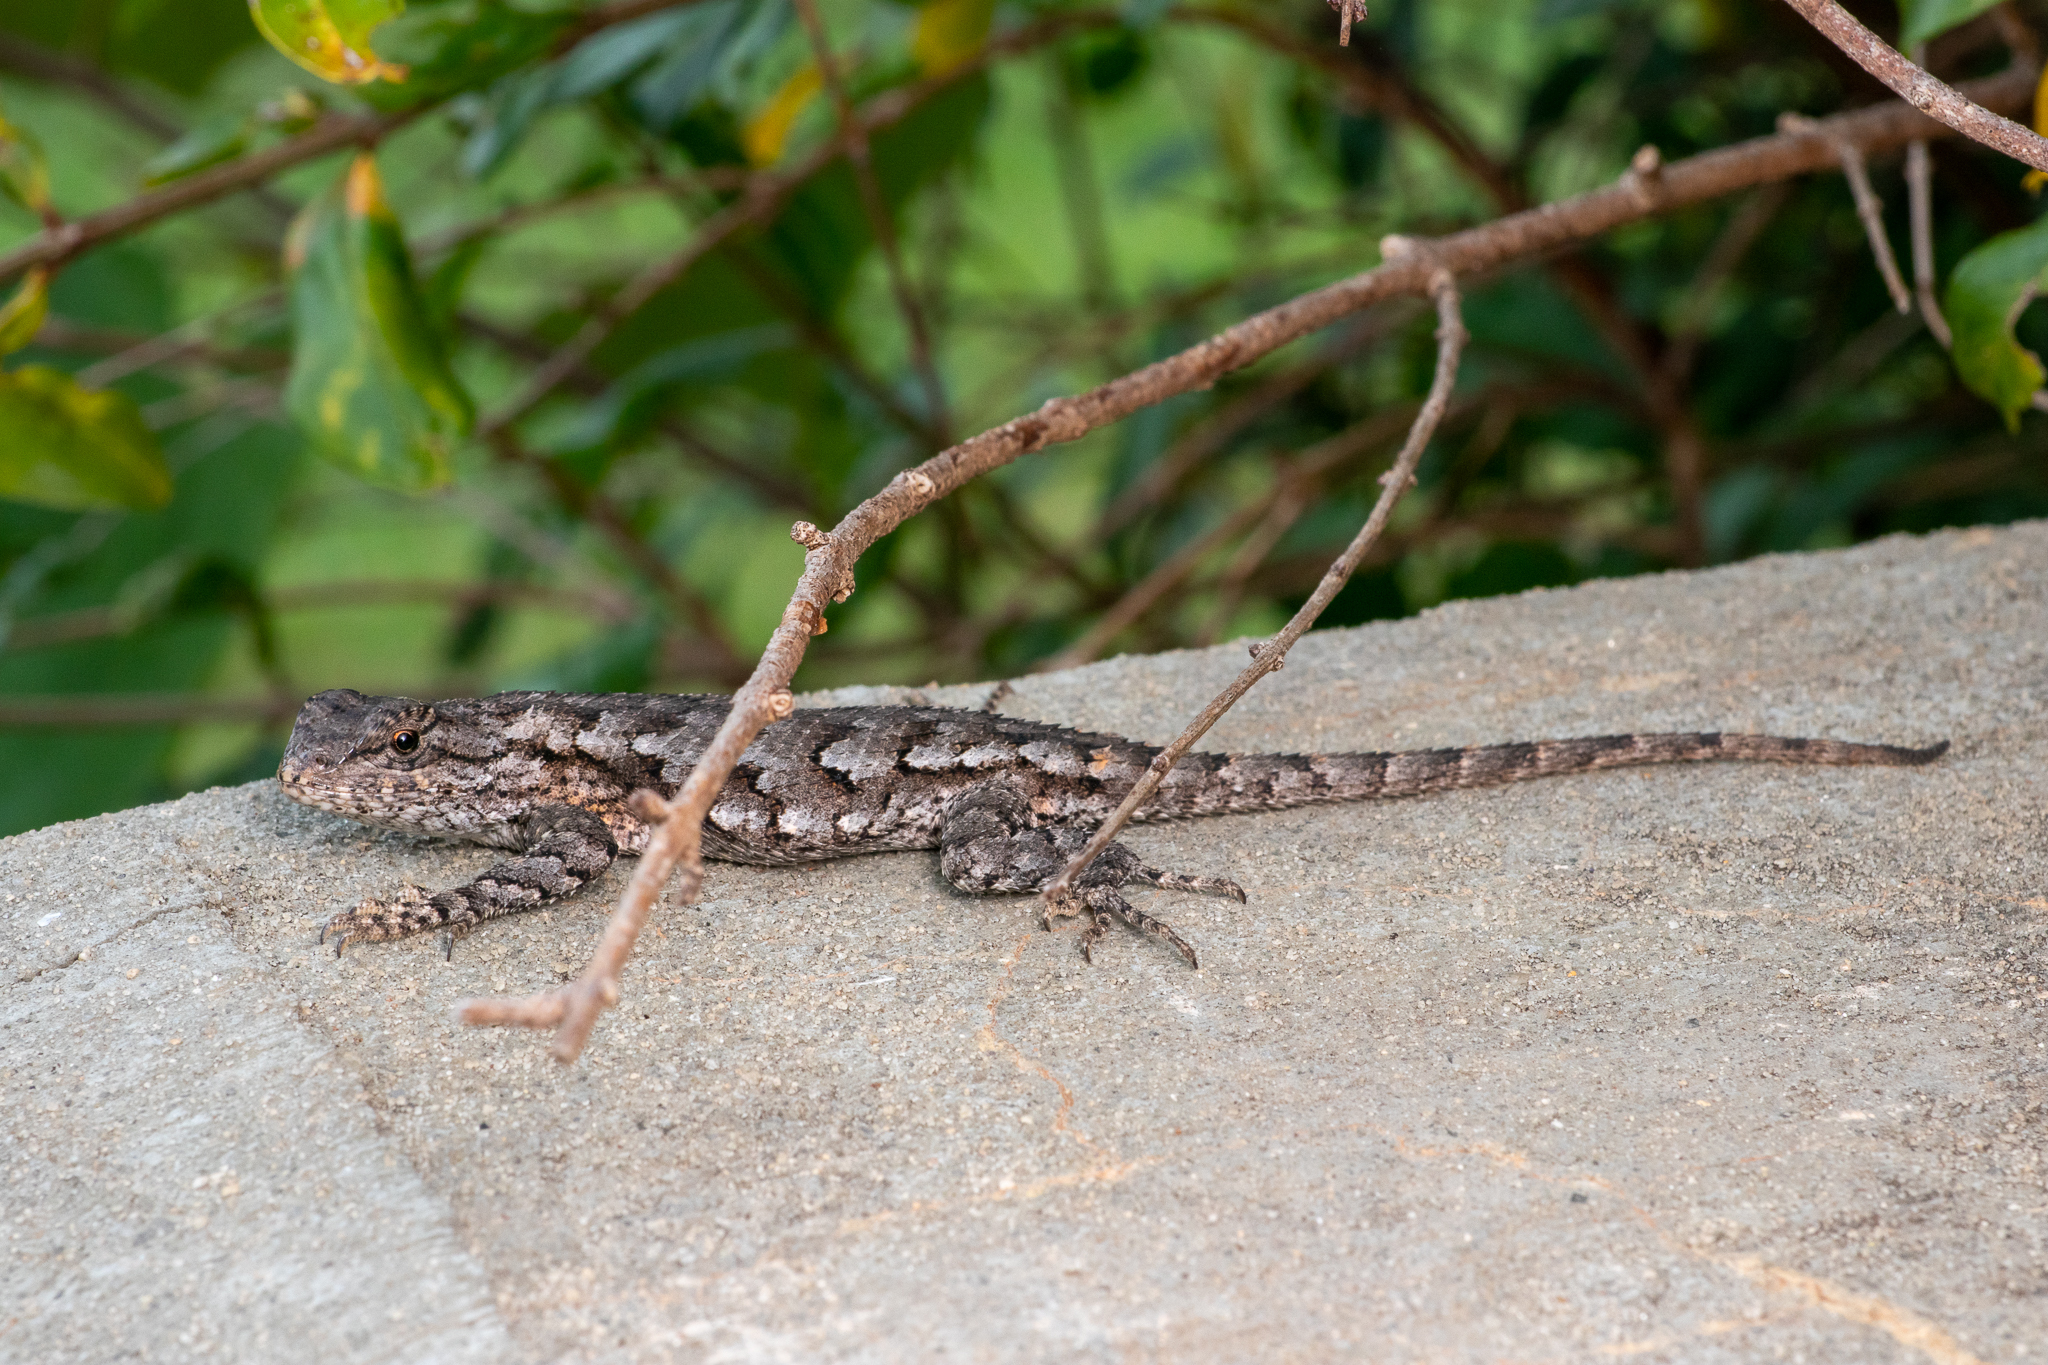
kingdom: Animalia
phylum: Chordata
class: Squamata
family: Phrynosomatidae
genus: Sceloporus
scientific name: Sceloporus undulatus
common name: Eastern fence lizard
